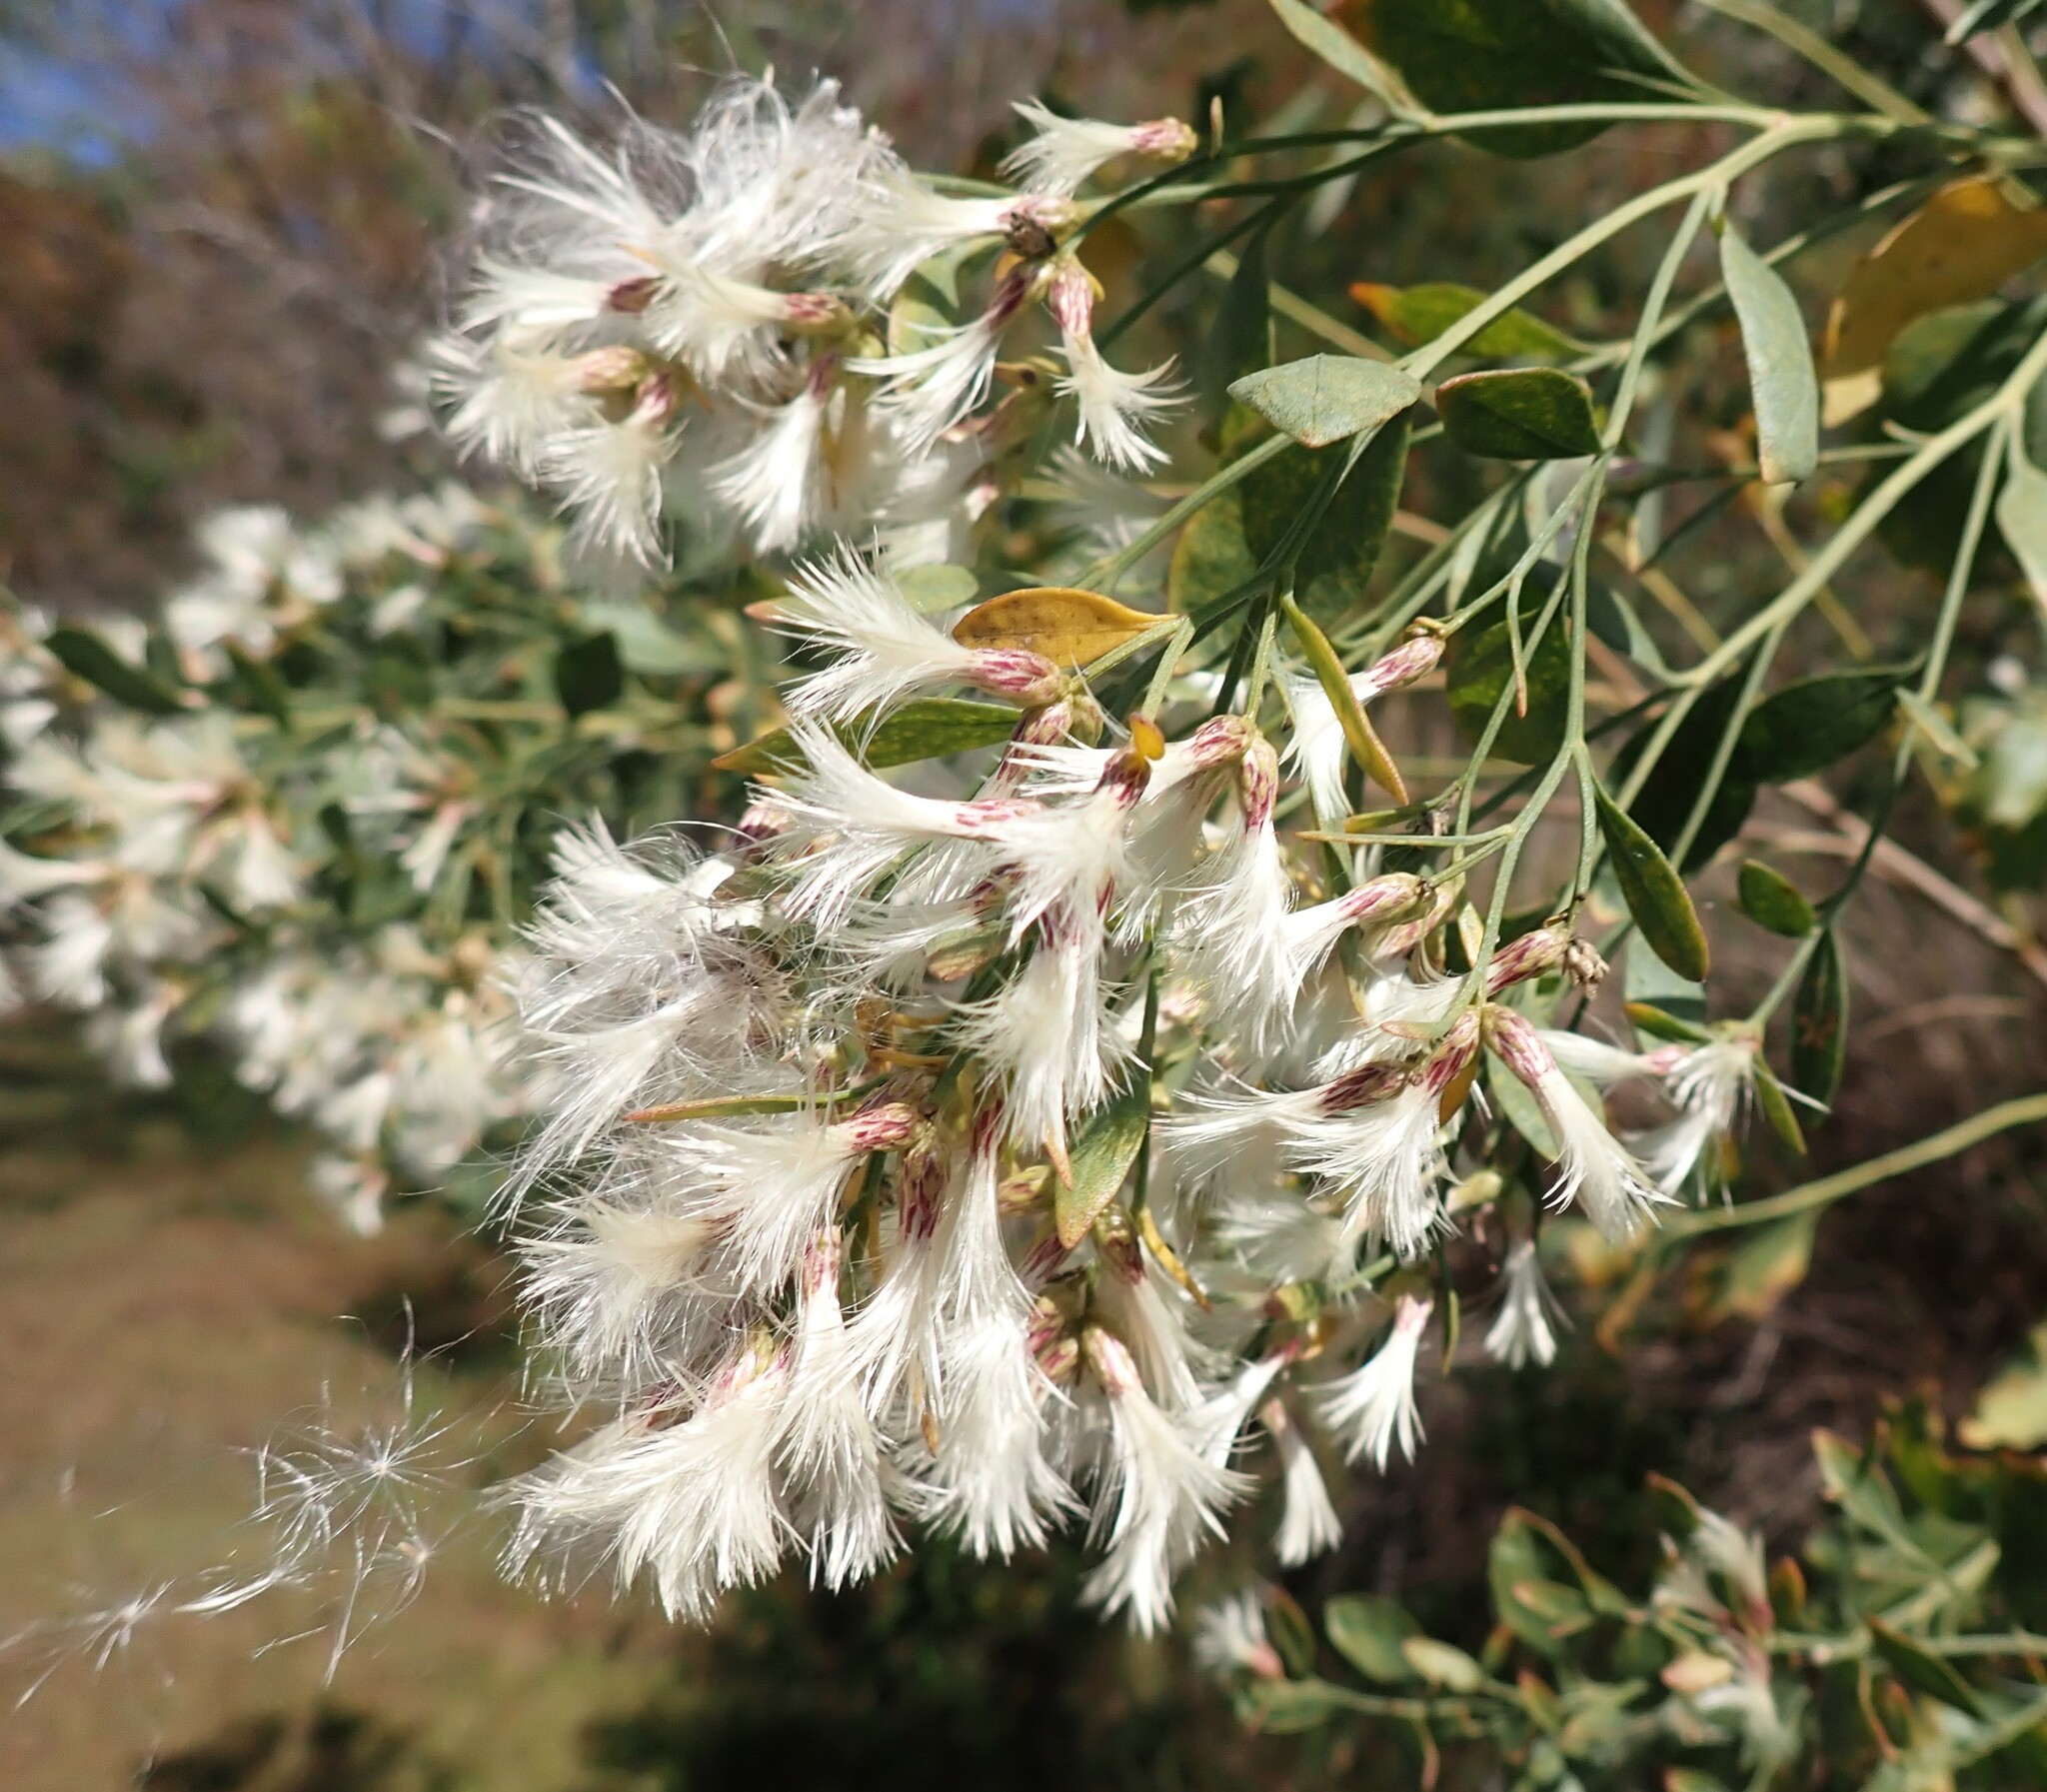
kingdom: Plantae
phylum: Tracheophyta
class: Magnoliopsida
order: Asterales
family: Asteraceae
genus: Baccharis
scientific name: Baccharis halimifolia
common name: Eastern baccharis
